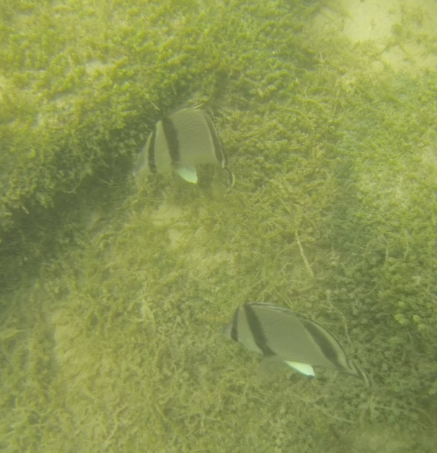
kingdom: Animalia
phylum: Chordata
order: Perciformes
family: Chaetodontidae
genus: Chaetodon
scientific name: Chaetodon humeralis
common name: Threebanded butterflyfish
